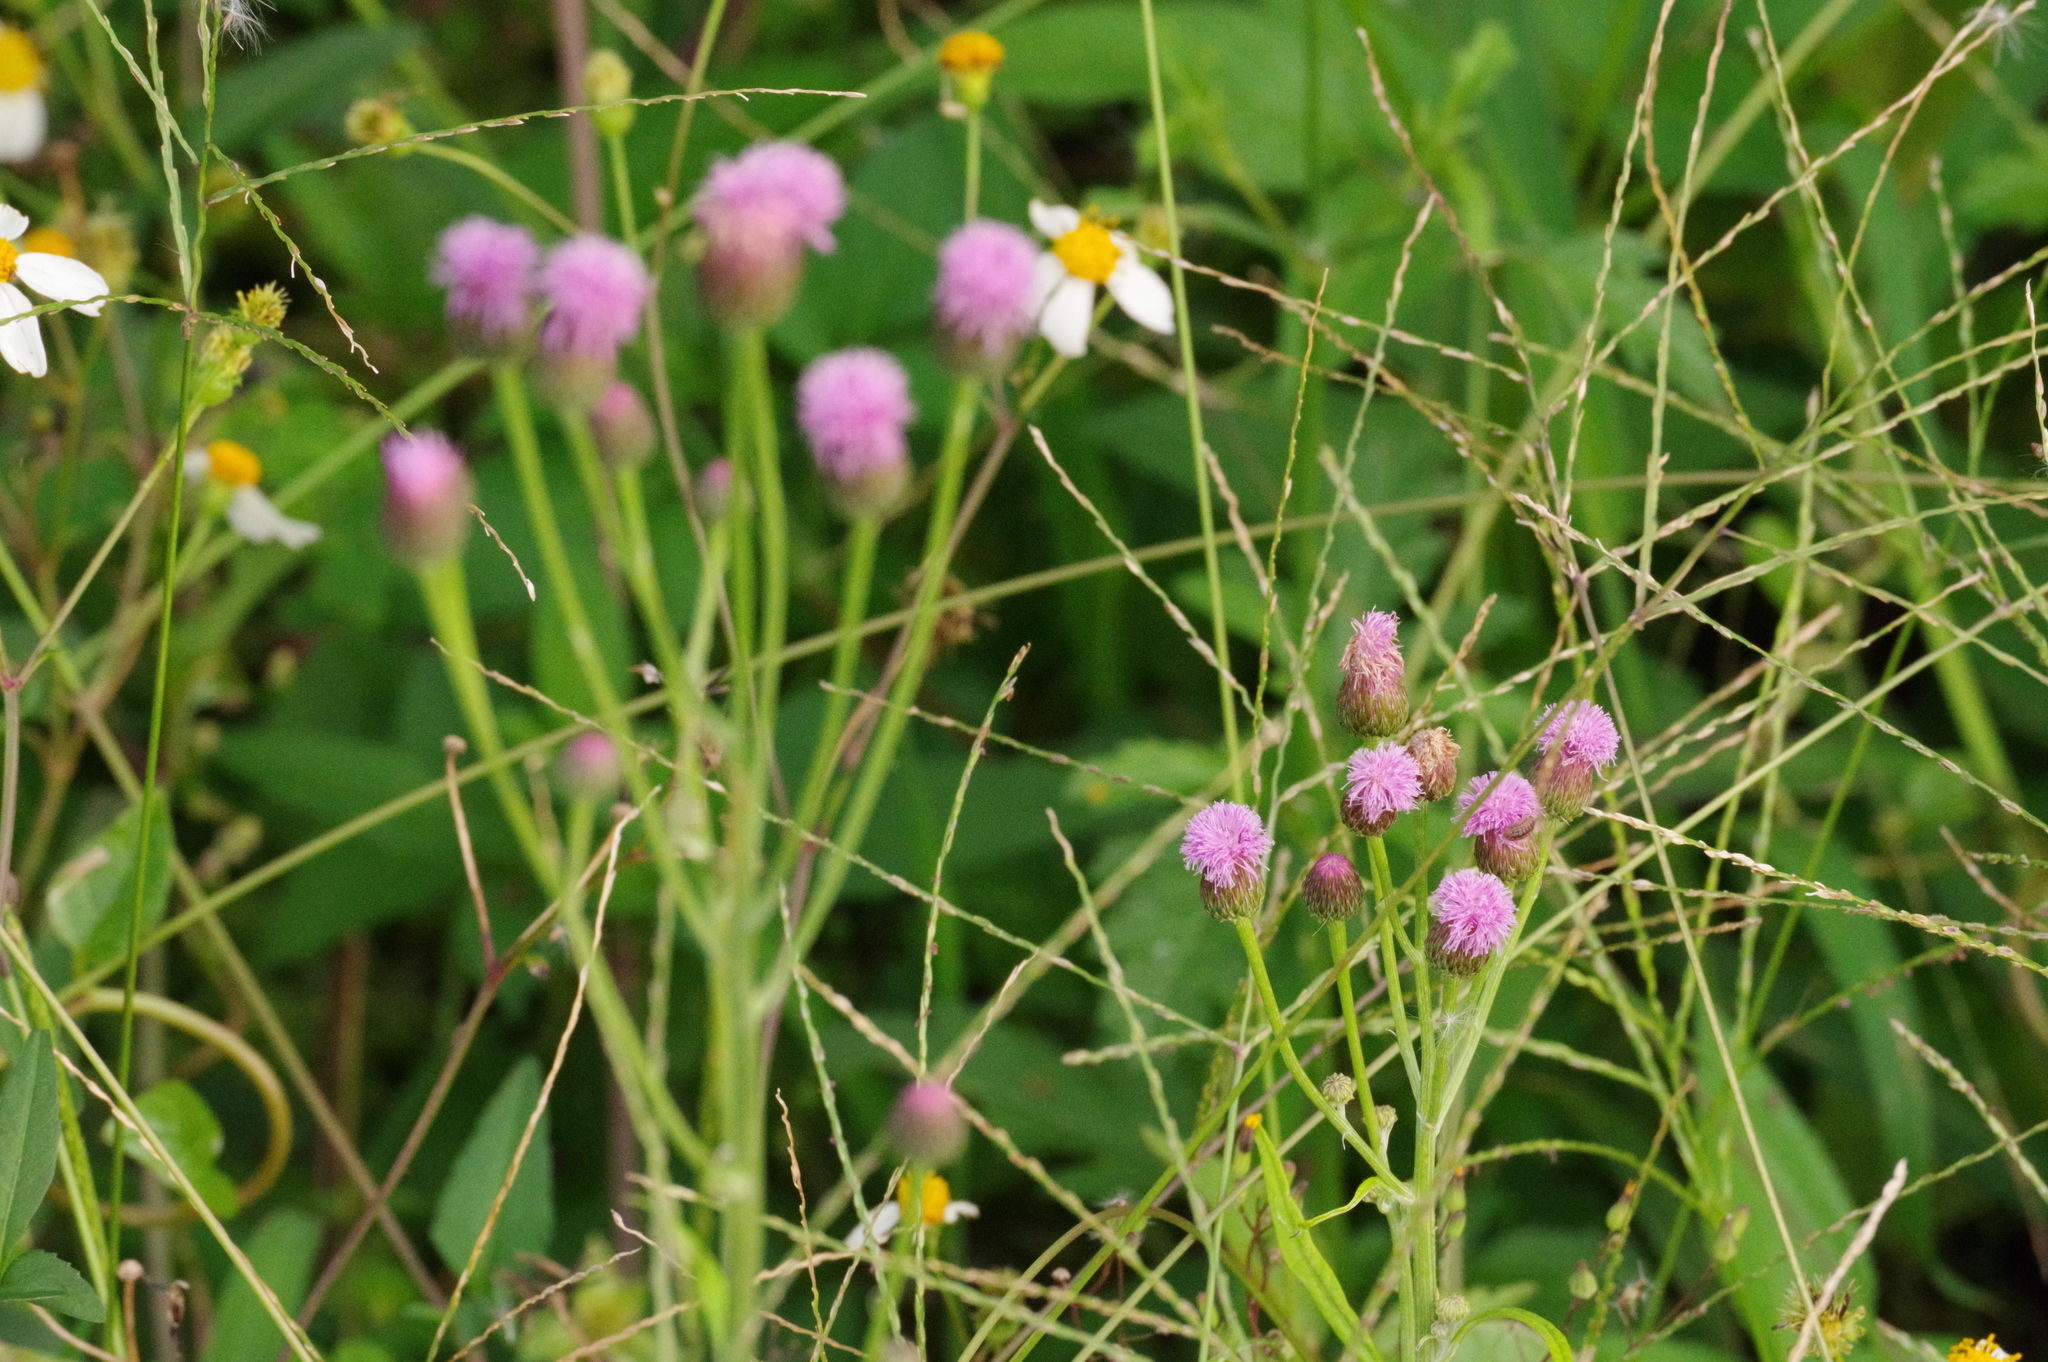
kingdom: Plantae
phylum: Tracheophyta
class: Magnoliopsida
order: Asterales
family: Asteraceae
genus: Saussurea
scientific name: Saussurea lyrata
